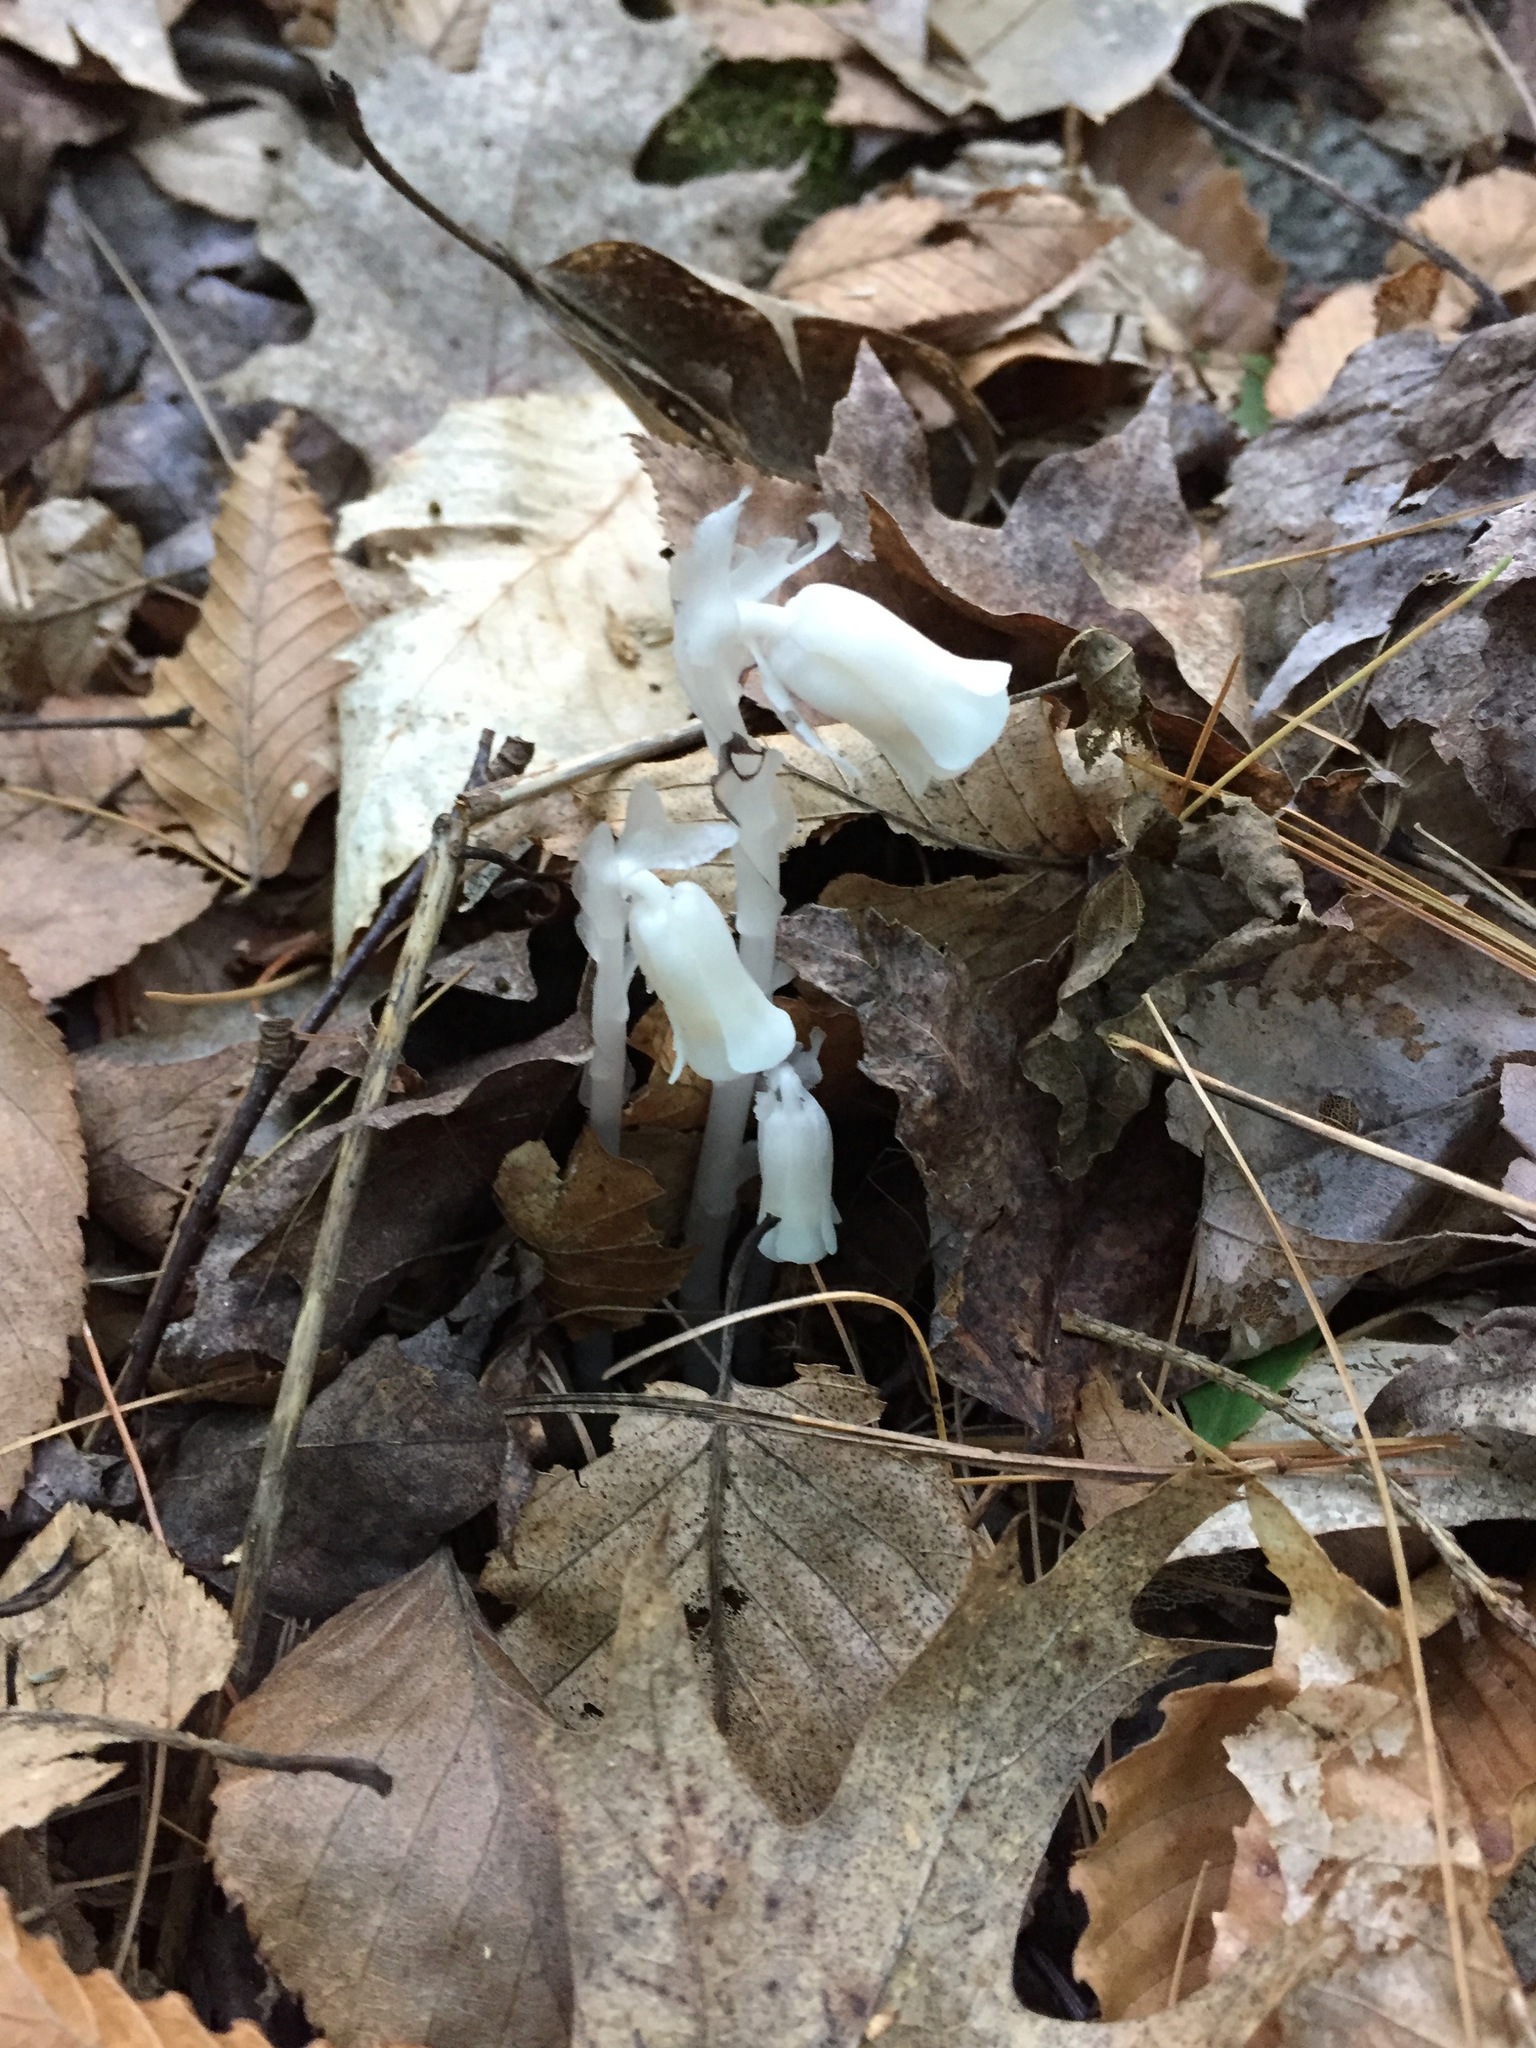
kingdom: Plantae
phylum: Tracheophyta
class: Magnoliopsida
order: Ericales
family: Ericaceae
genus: Monotropa
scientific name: Monotropa uniflora
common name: Convulsion root
